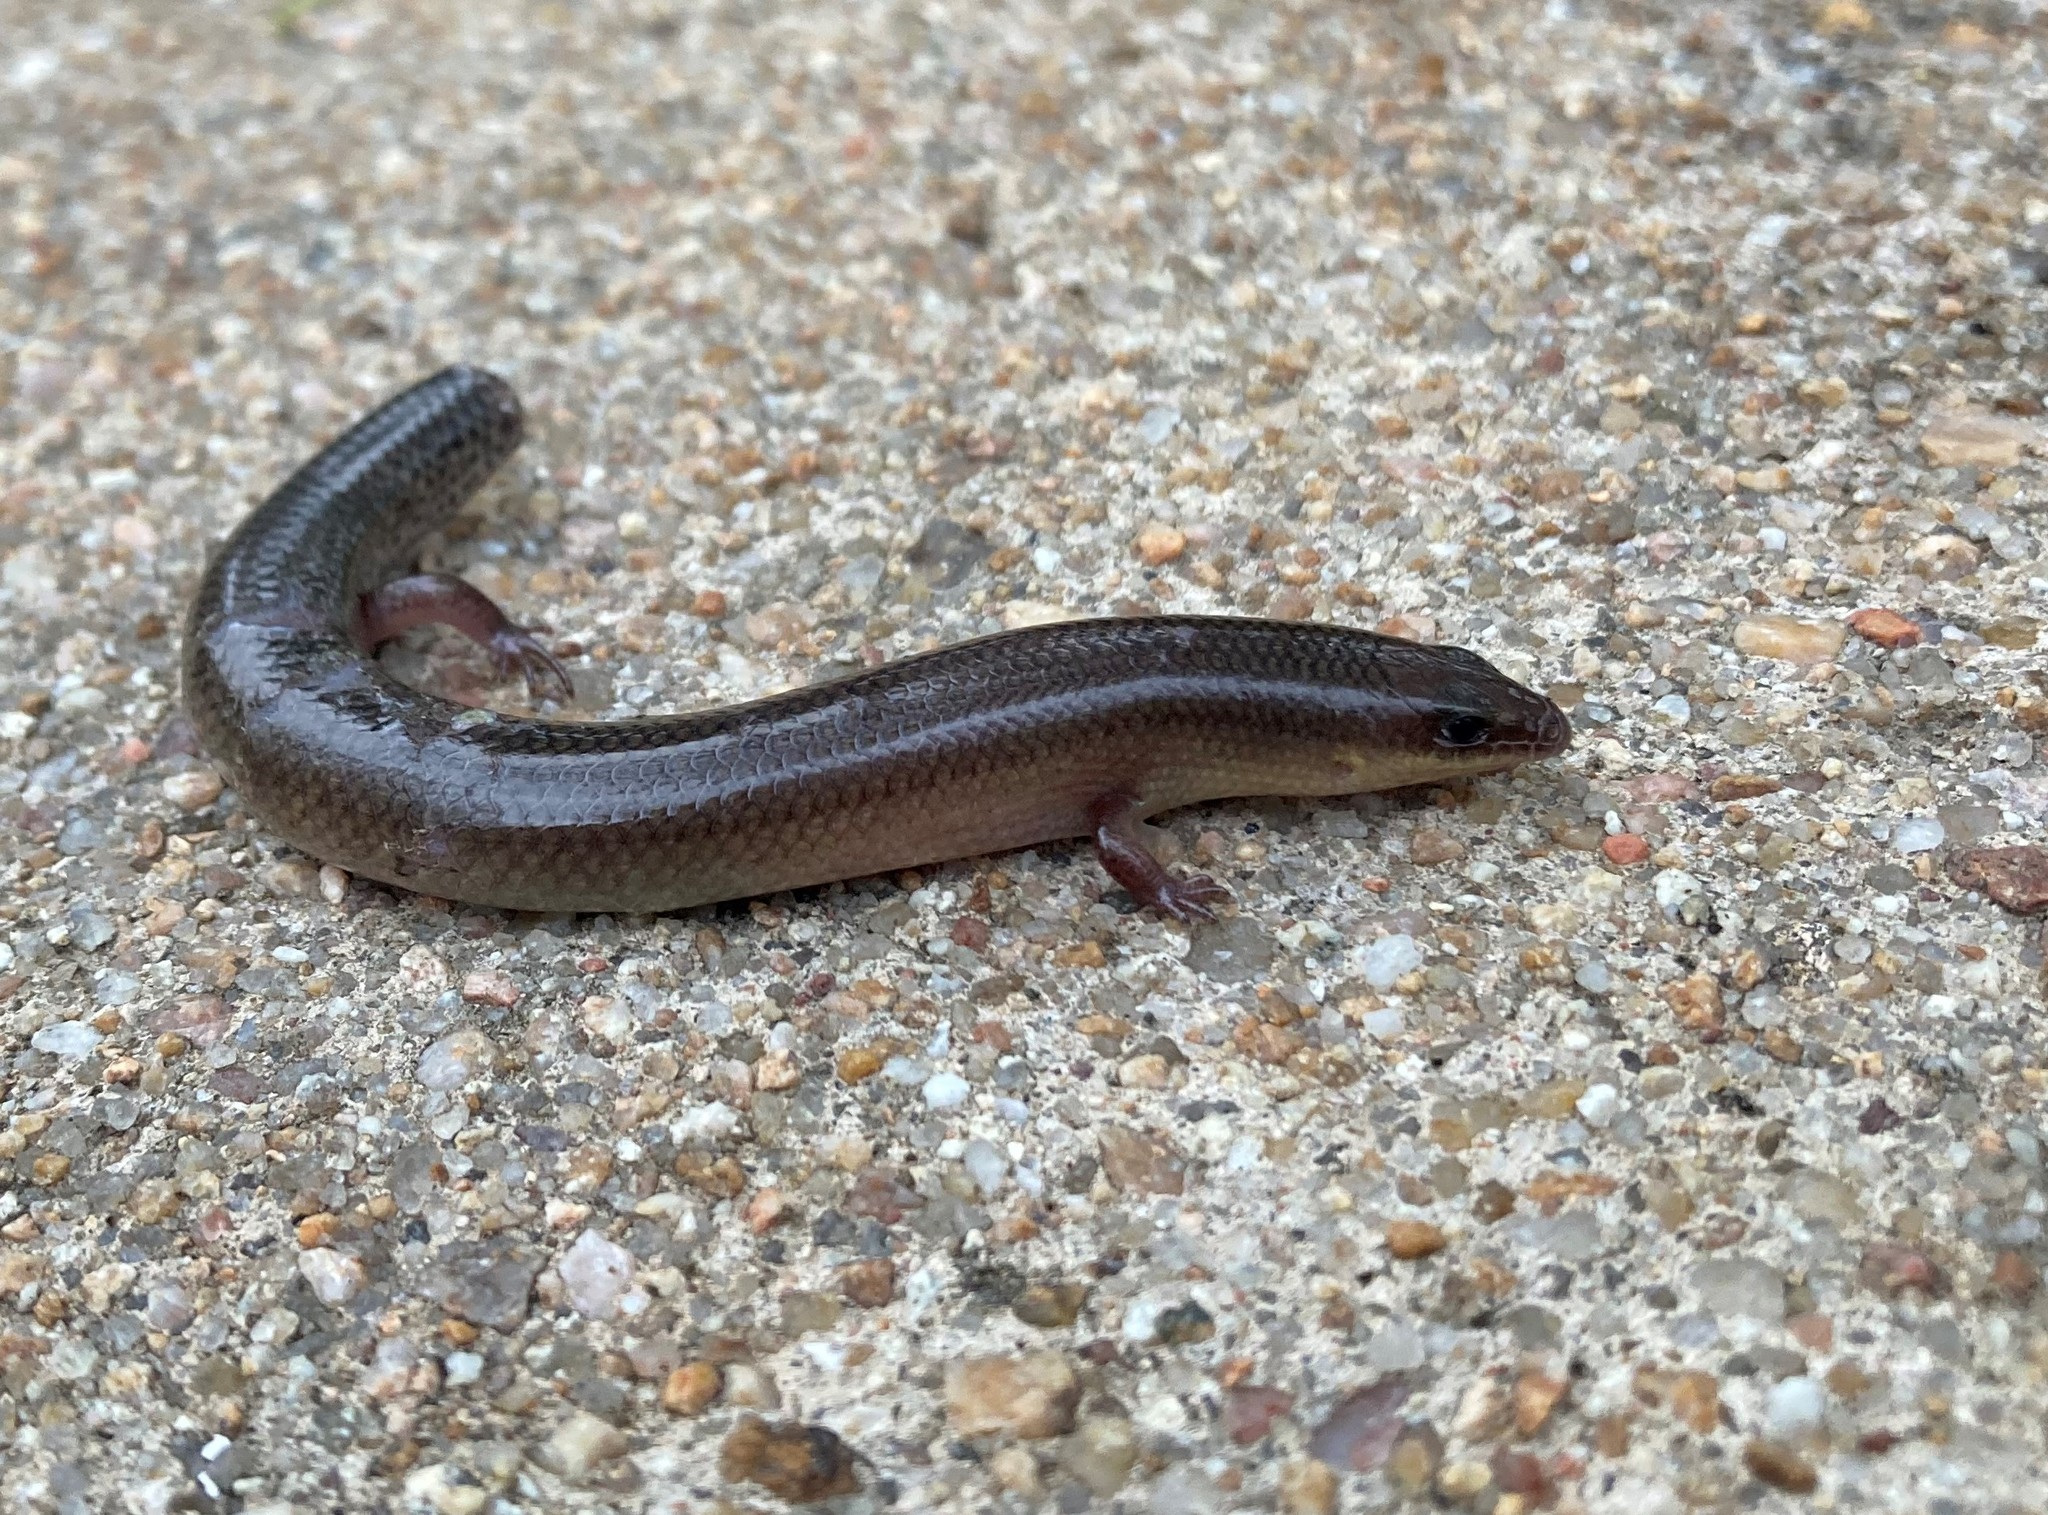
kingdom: Animalia
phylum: Chordata
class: Squamata
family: Scincidae
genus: Mochlus
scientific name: Mochlus sundevallii
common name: Peters' eyelid skink
